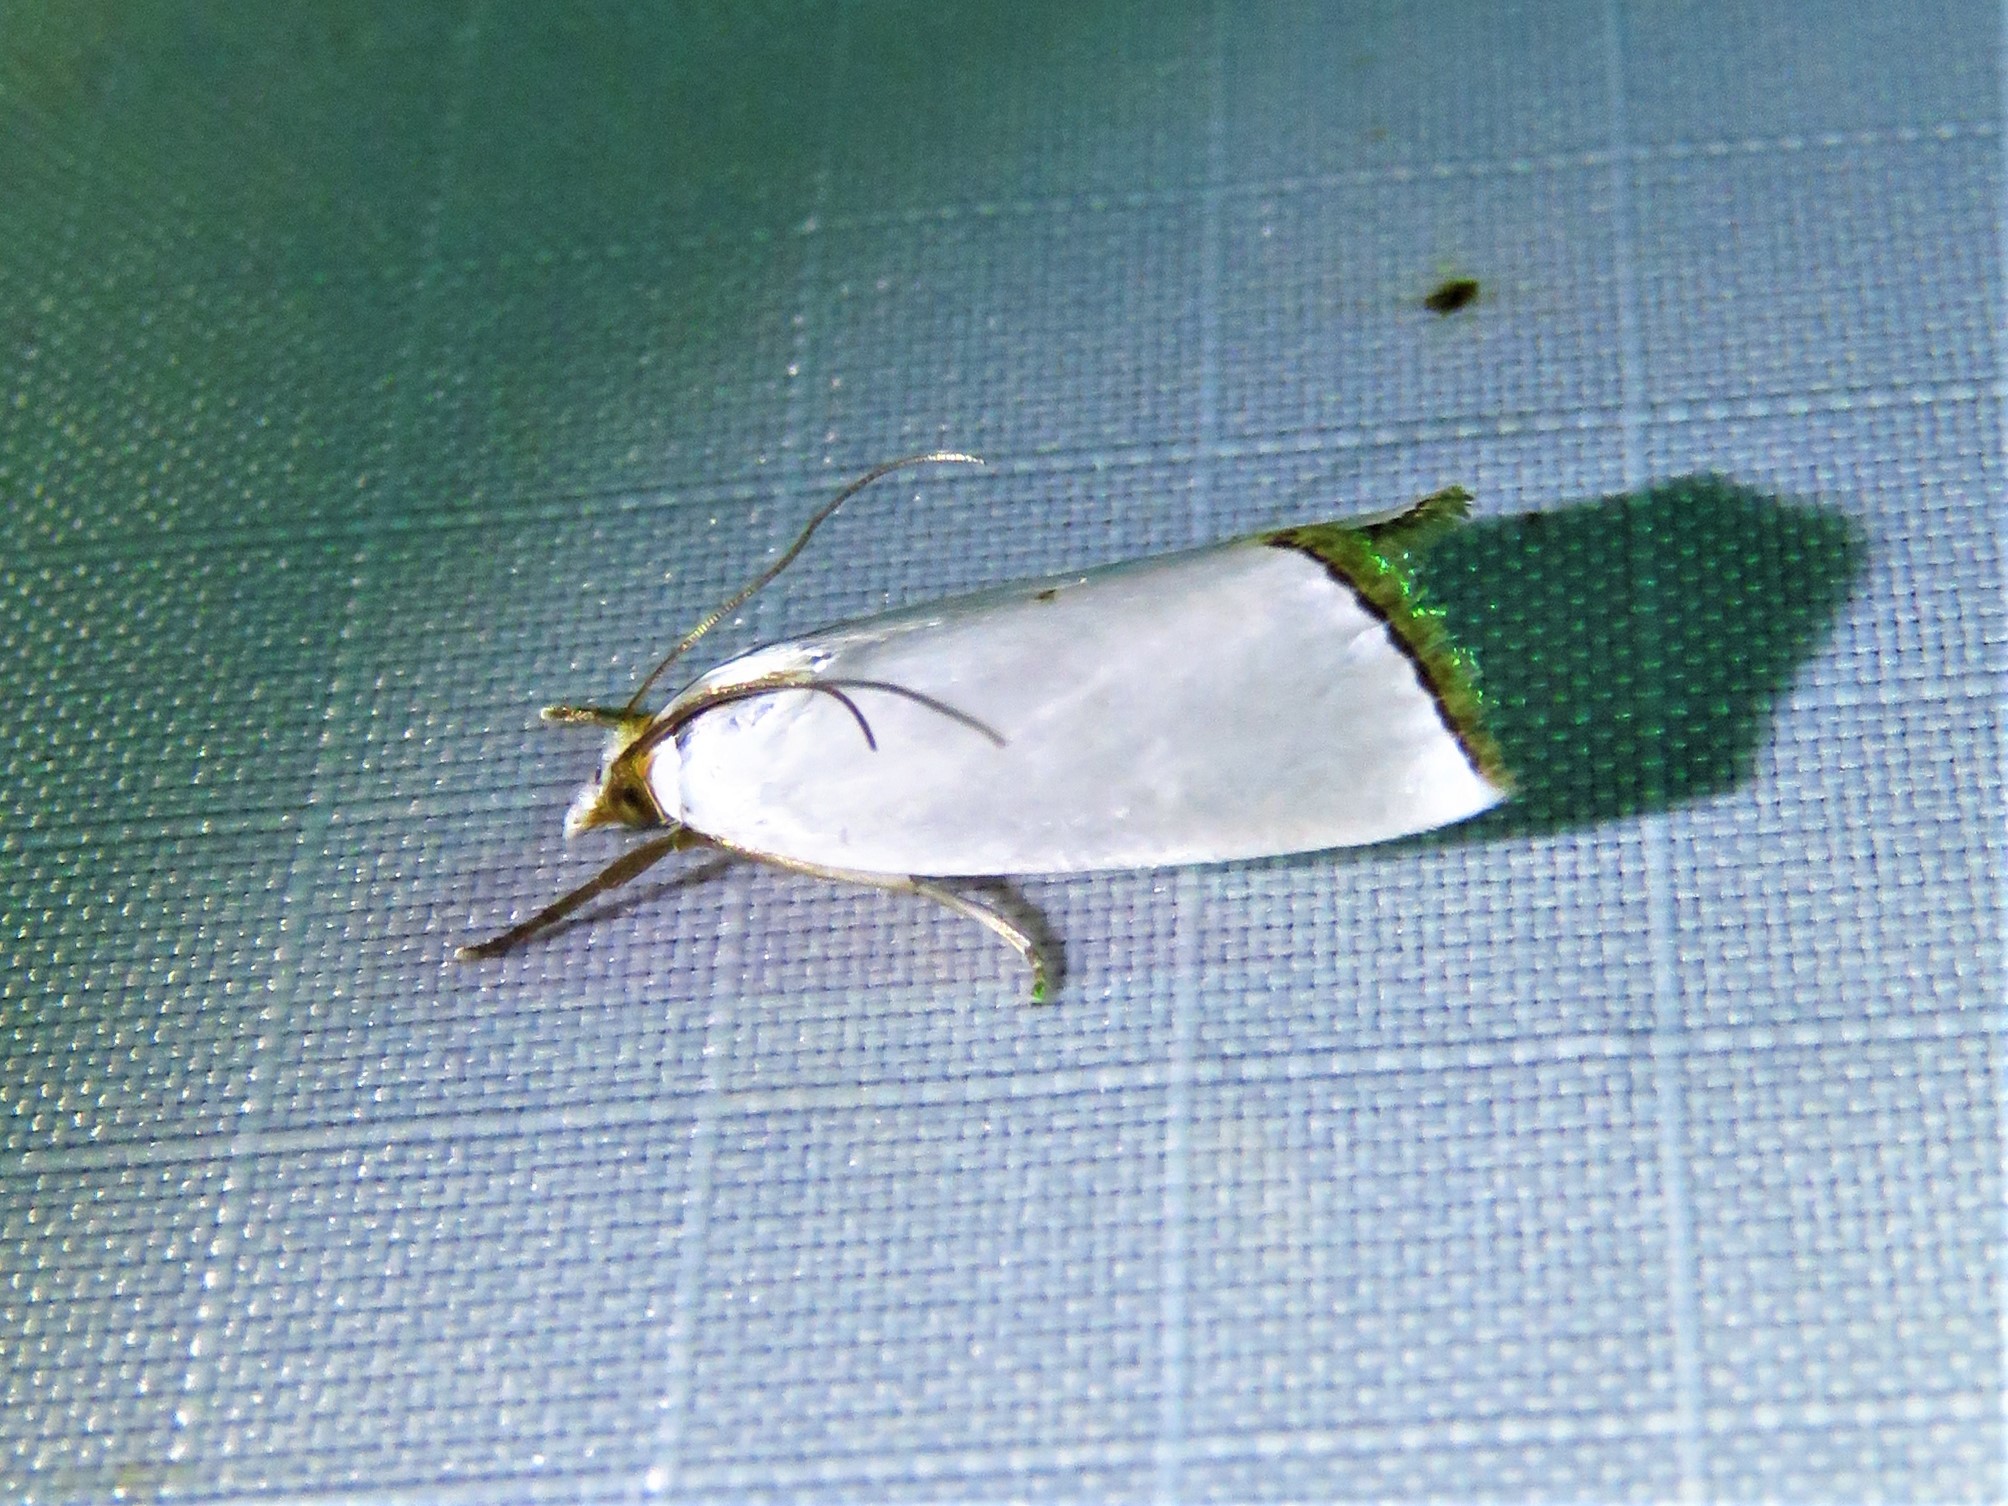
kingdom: Animalia
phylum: Arthropoda
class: Insecta
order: Lepidoptera
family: Crambidae
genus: Argyria
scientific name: Argyria nivalis
